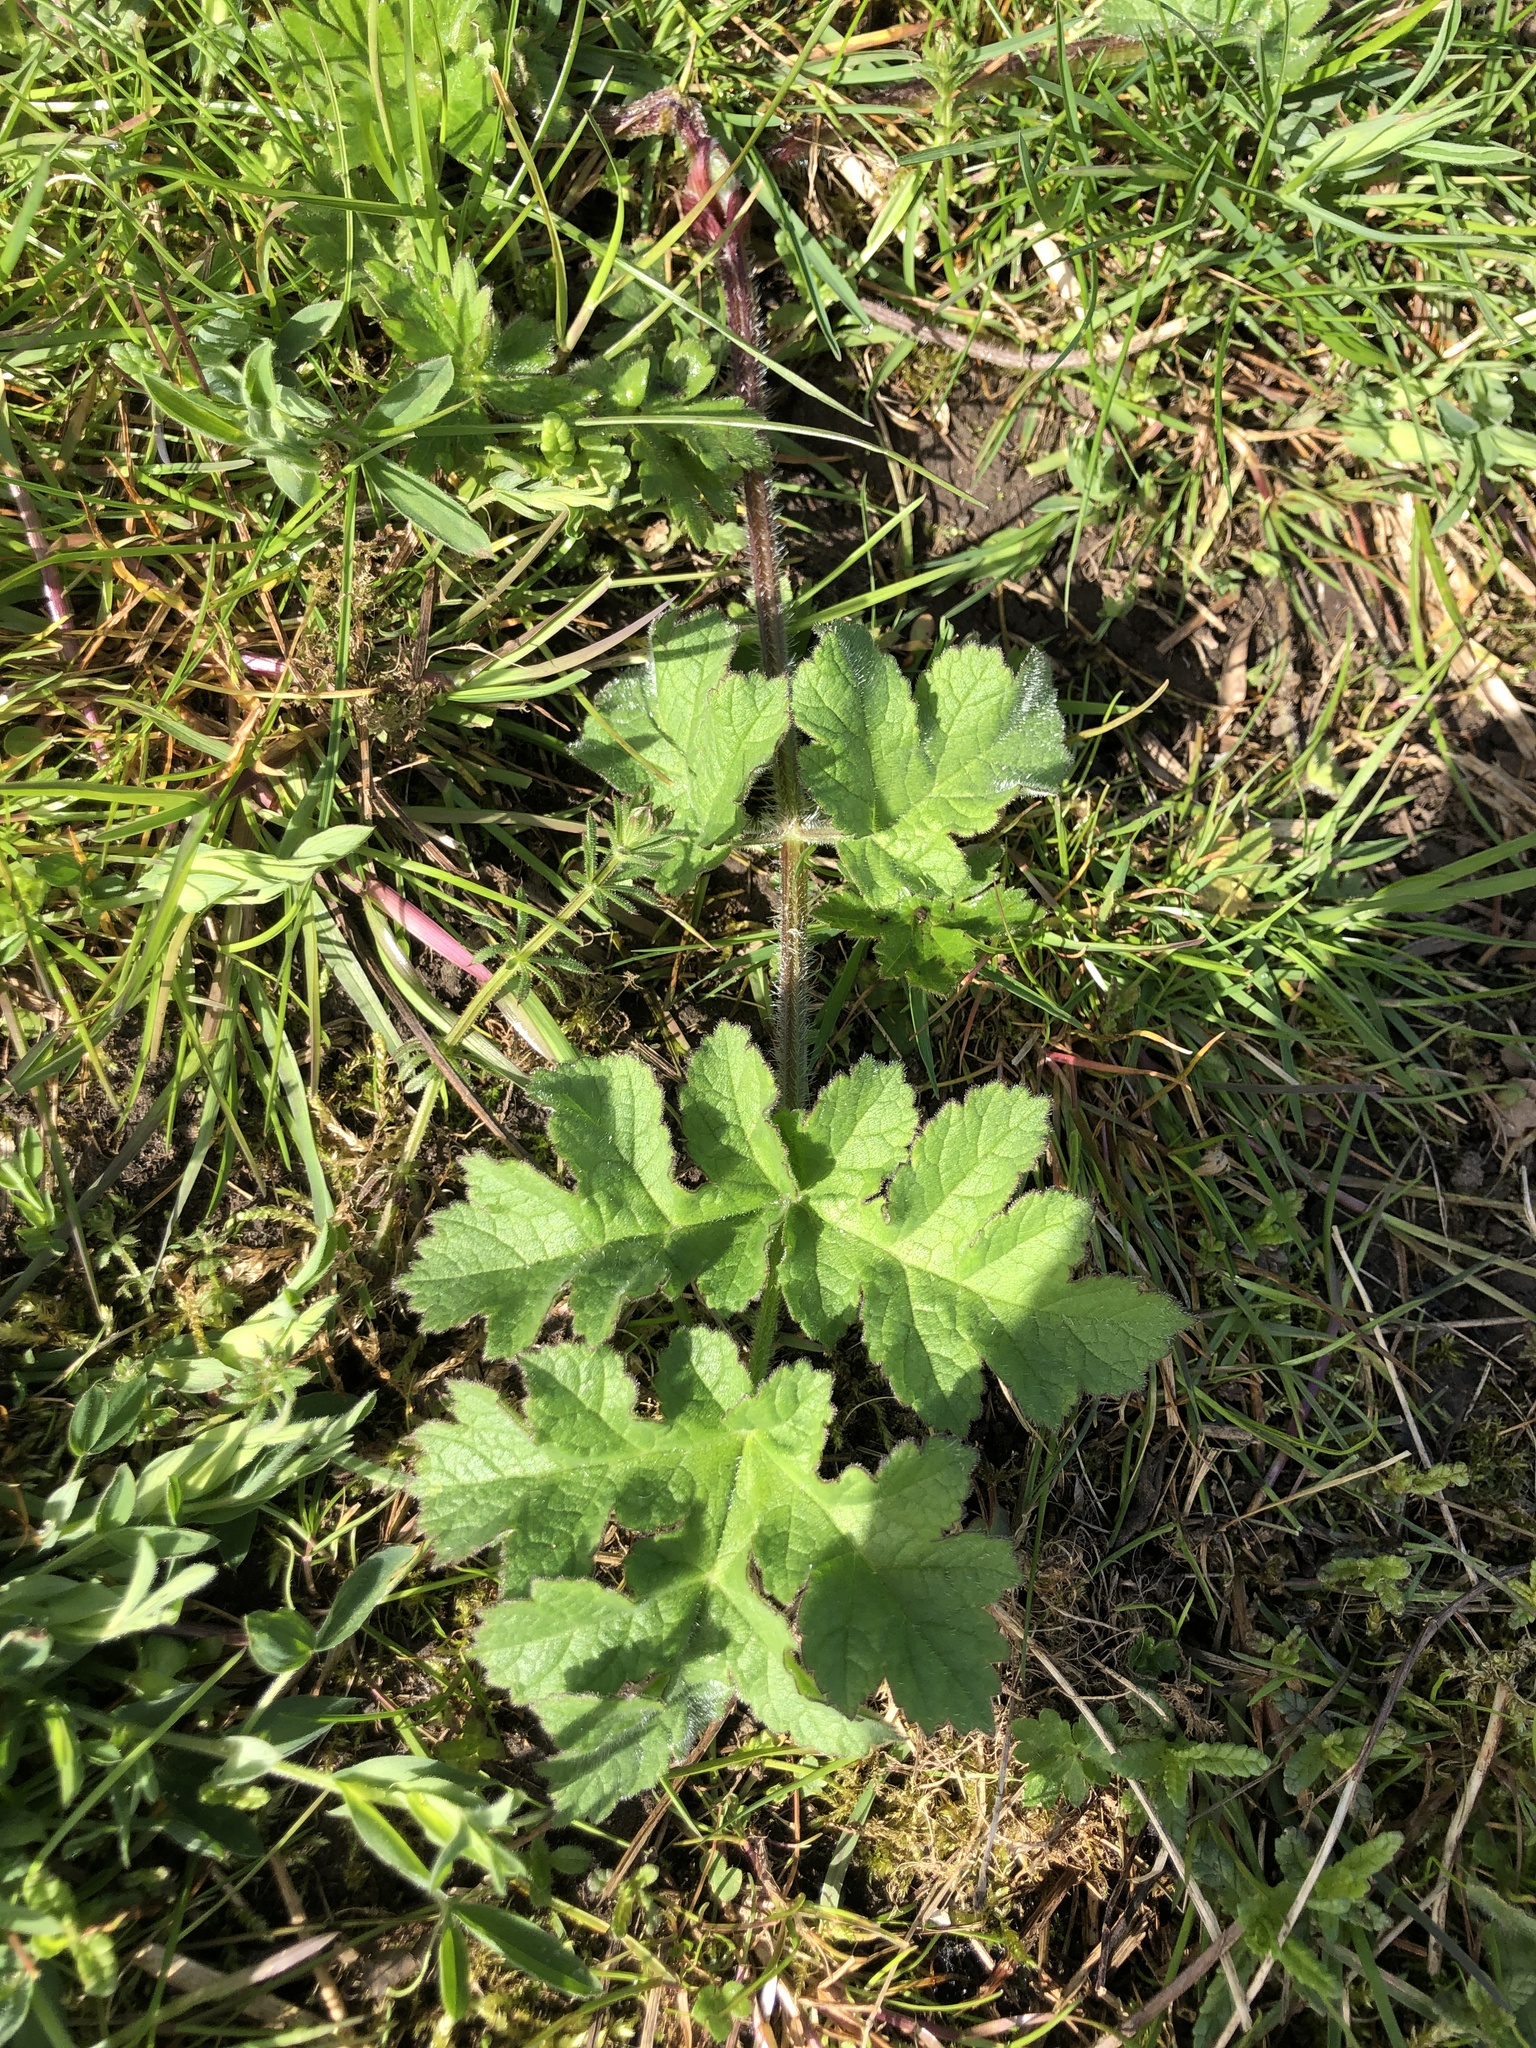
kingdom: Plantae
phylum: Tracheophyta
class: Magnoliopsida
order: Apiales
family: Apiaceae
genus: Heracleum
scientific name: Heracleum sphondylium
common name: Hogweed
